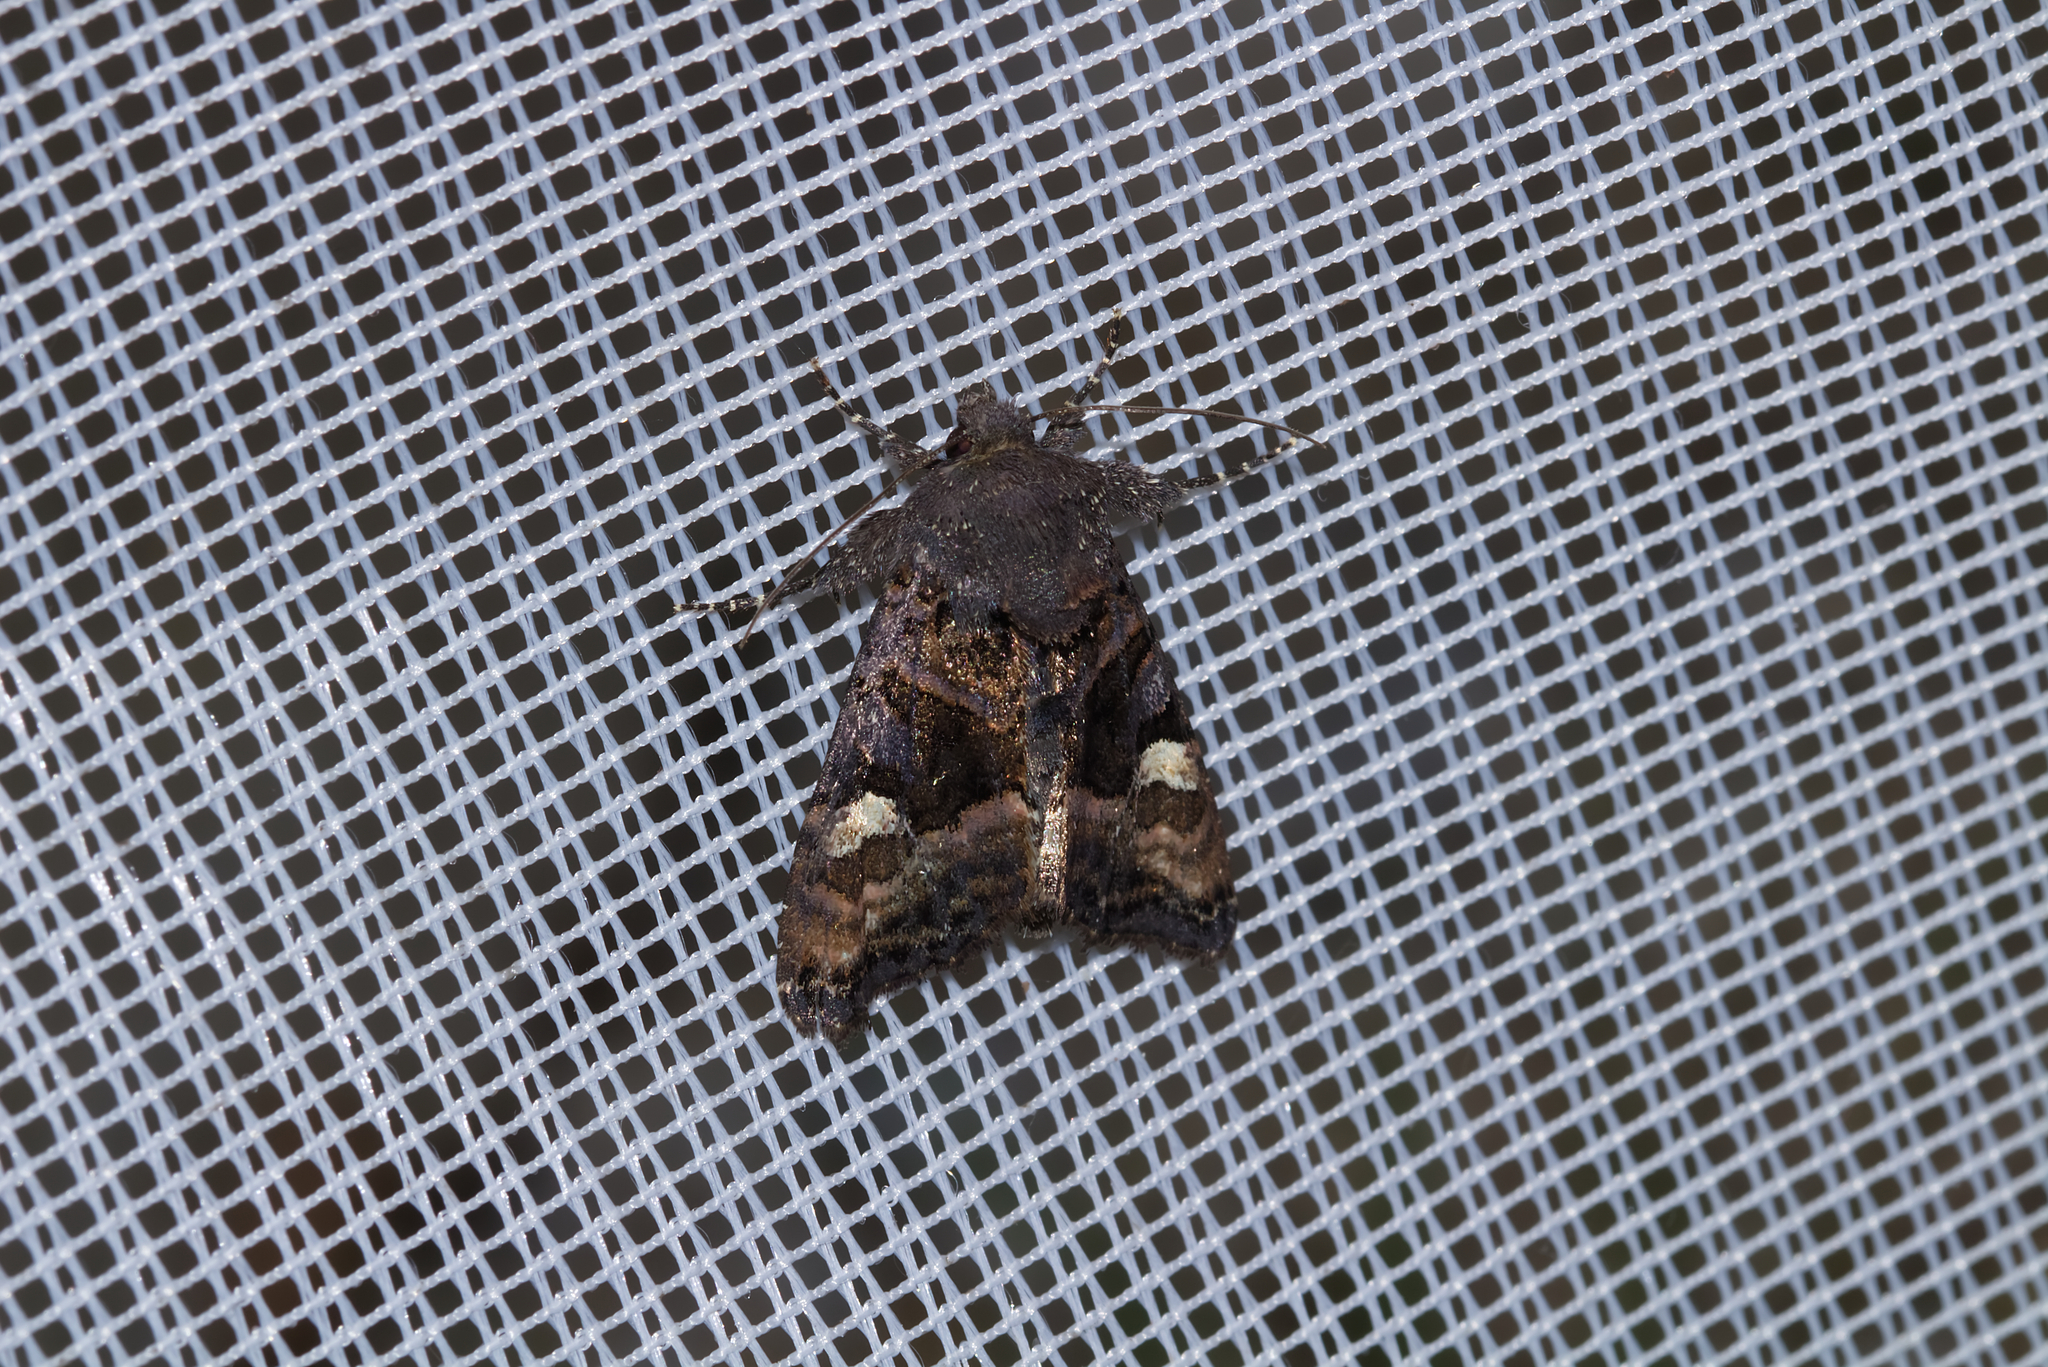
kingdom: Animalia
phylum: Arthropoda
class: Insecta
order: Lepidoptera
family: Noctuidae
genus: Euplexia
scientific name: Euplexia lucipara
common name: Small angle shades
